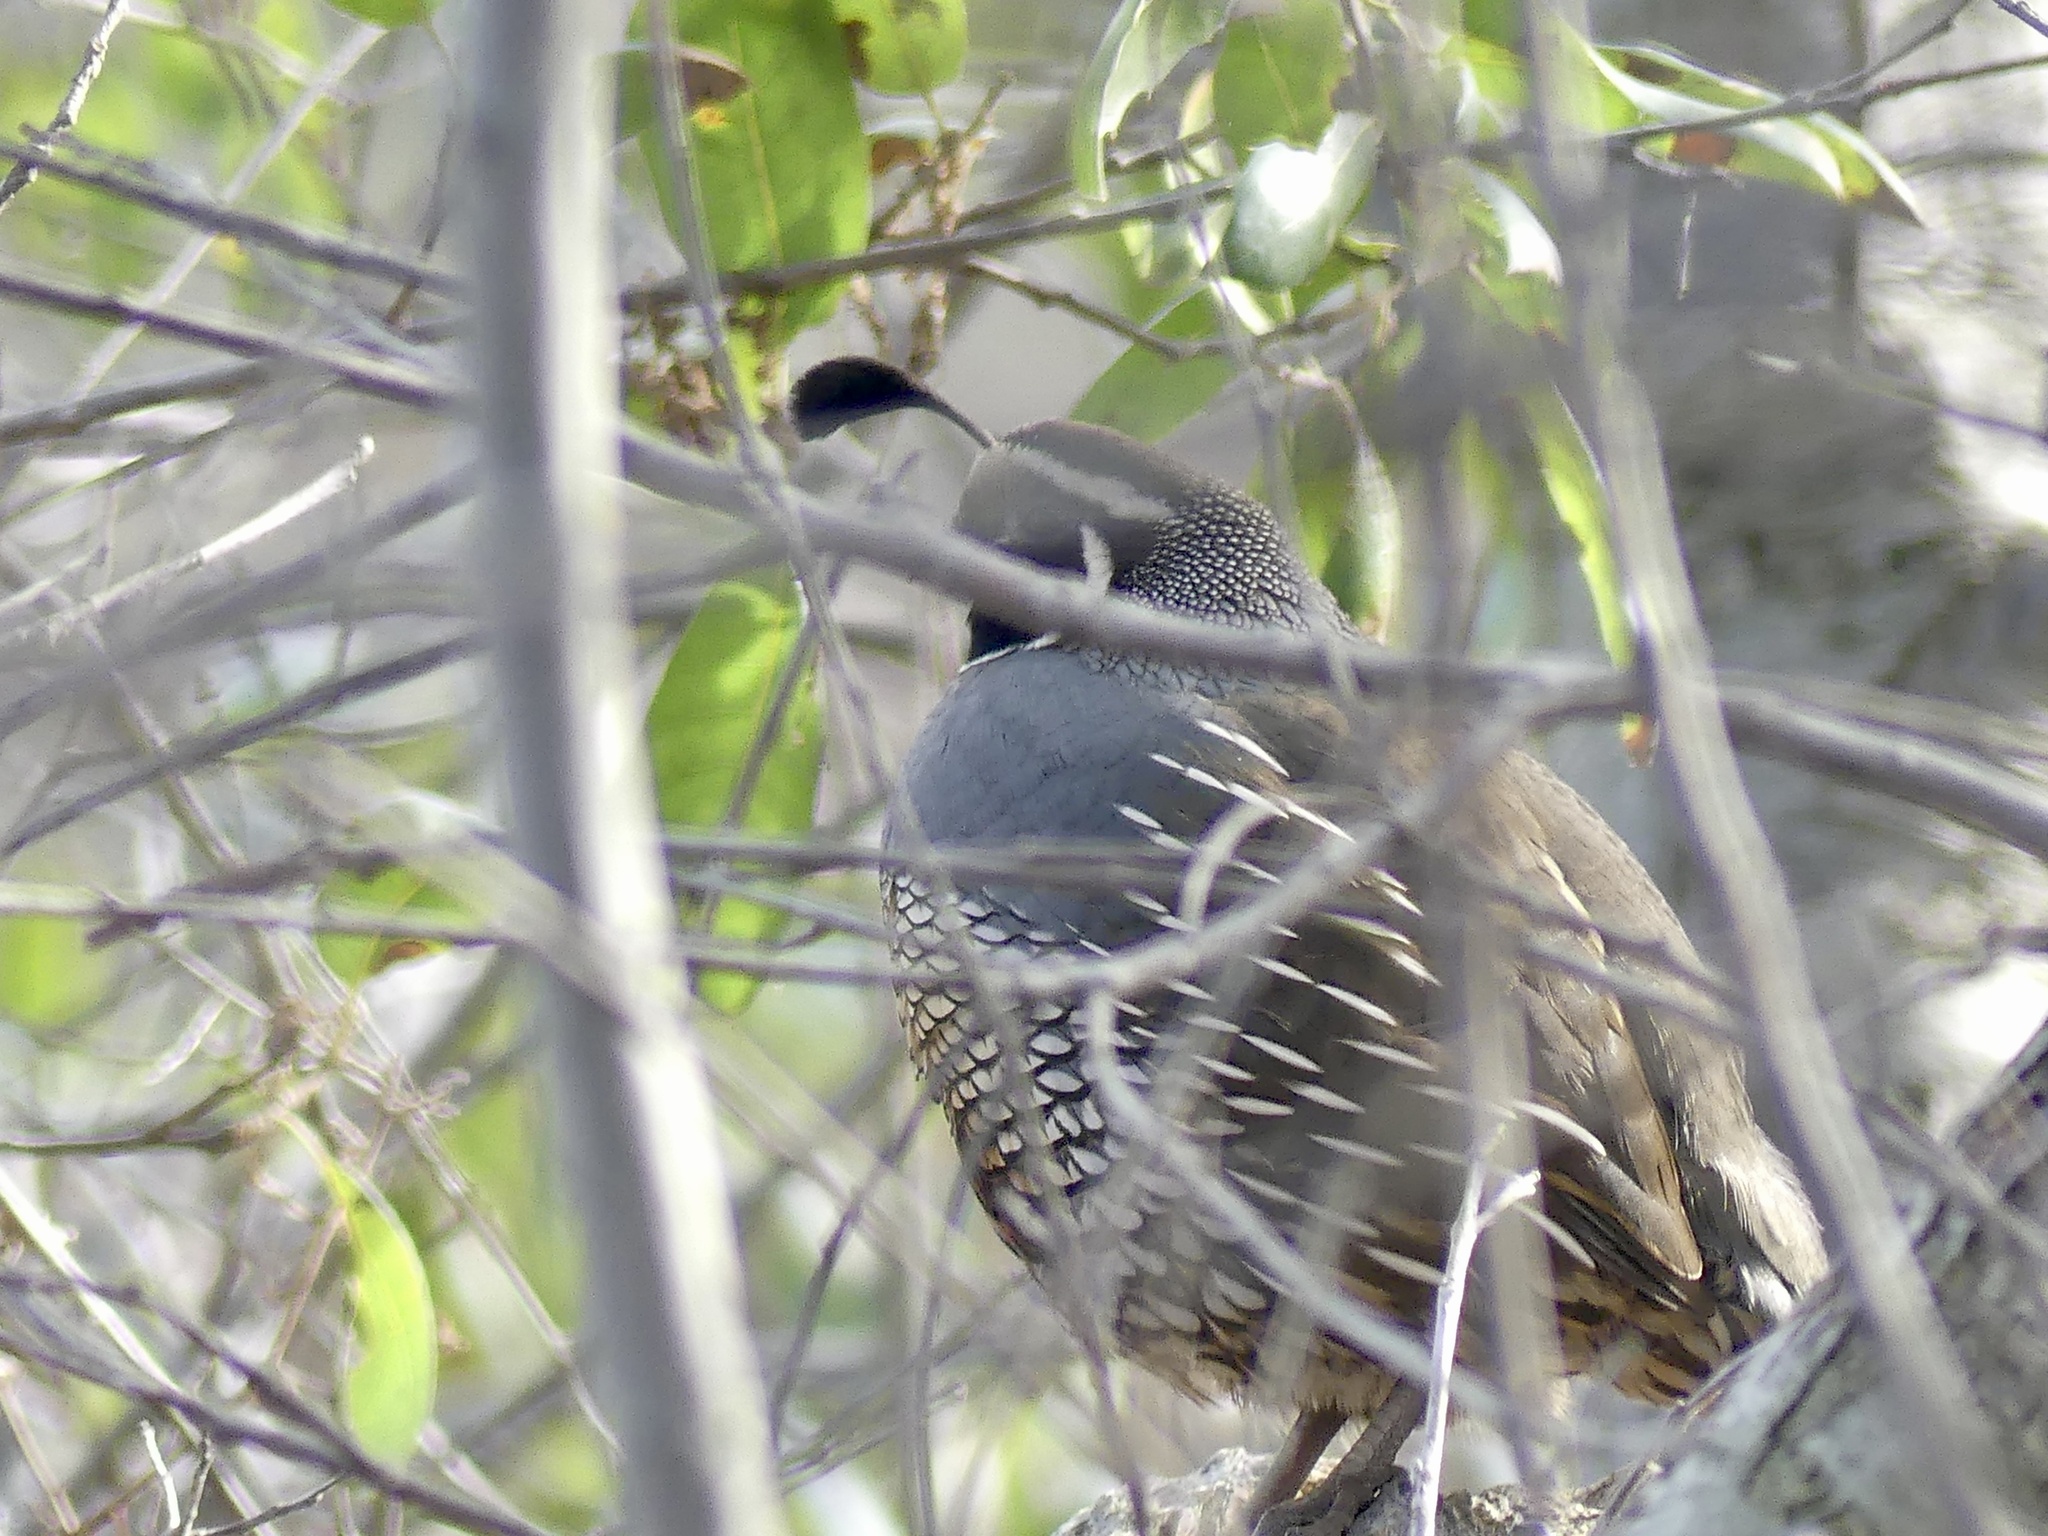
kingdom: Animalia
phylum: Chordata
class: Aves
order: Galliformes
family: Odontophoridae
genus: Callipepla
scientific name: Callipepla californica
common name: California quail
